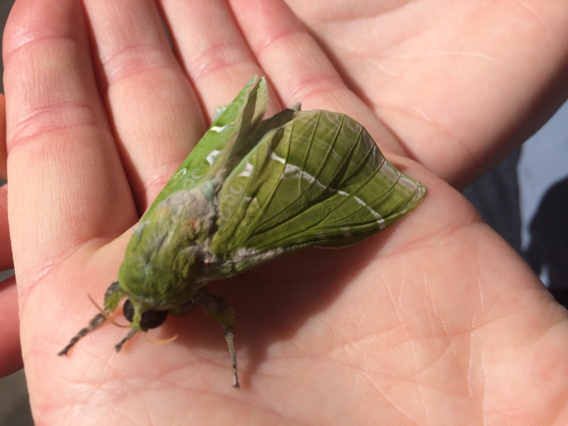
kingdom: Animalia
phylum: Arthropoda
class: Insecta
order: Lepidoptera
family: Hepialidae
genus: Aenetus
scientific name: Aenetus virescens
